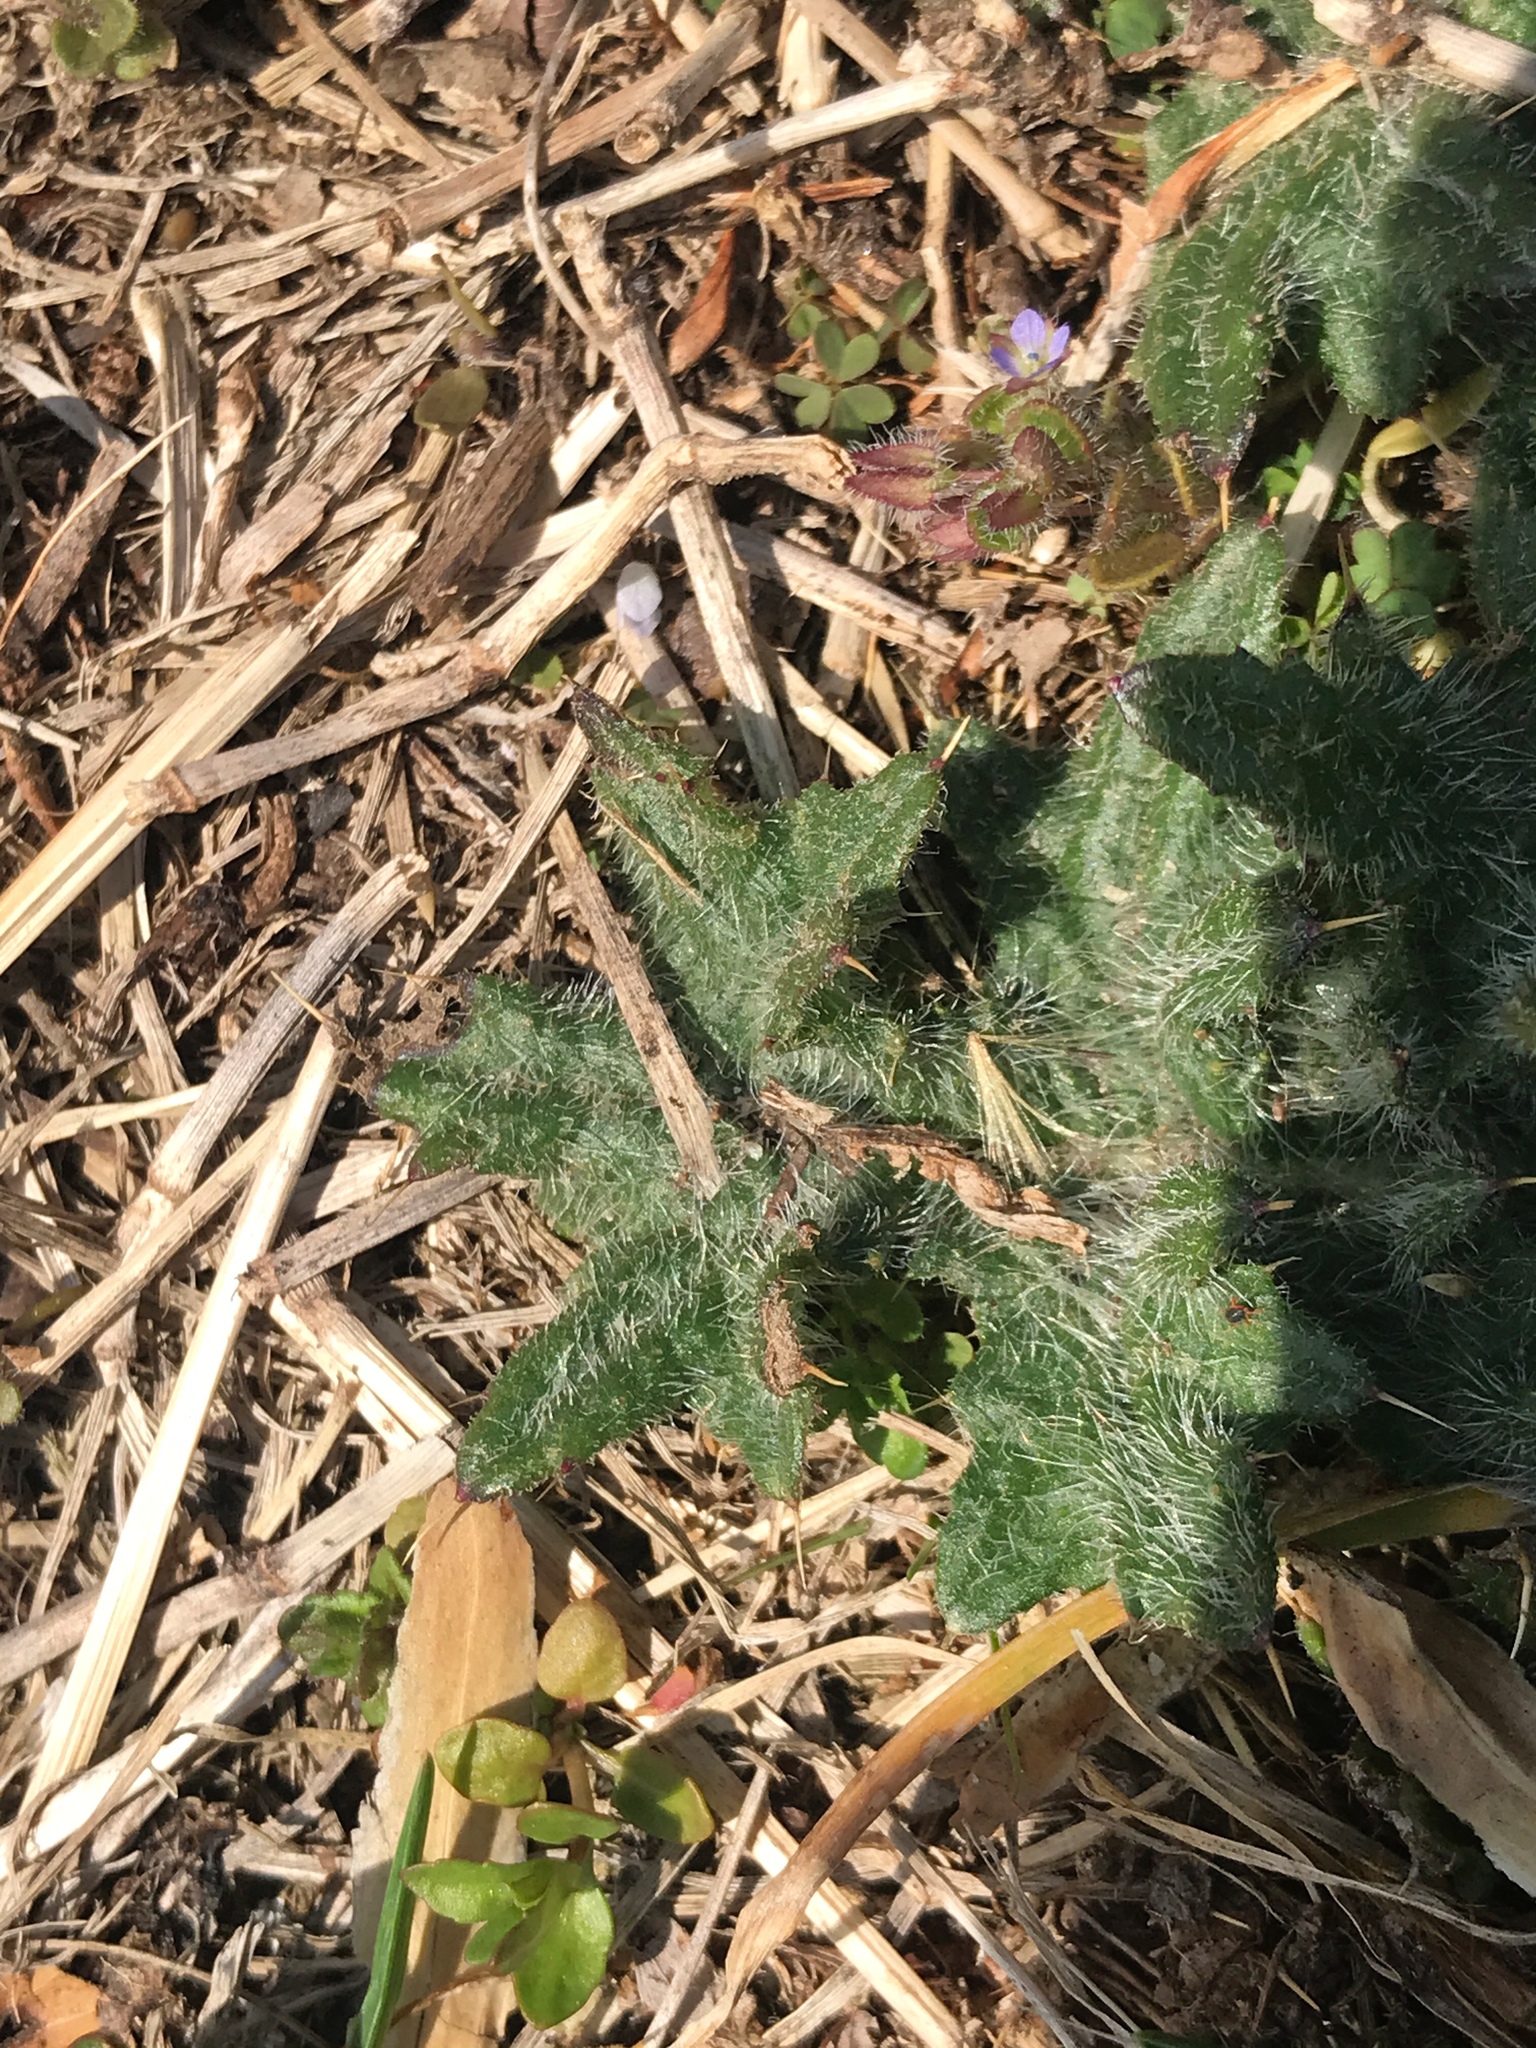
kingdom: Plantae
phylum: Tracheophyta
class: Magnoliopsida
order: Asterales
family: Asteraceae
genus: Cirsium
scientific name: Cirsium vulgare
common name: Bull thistle
